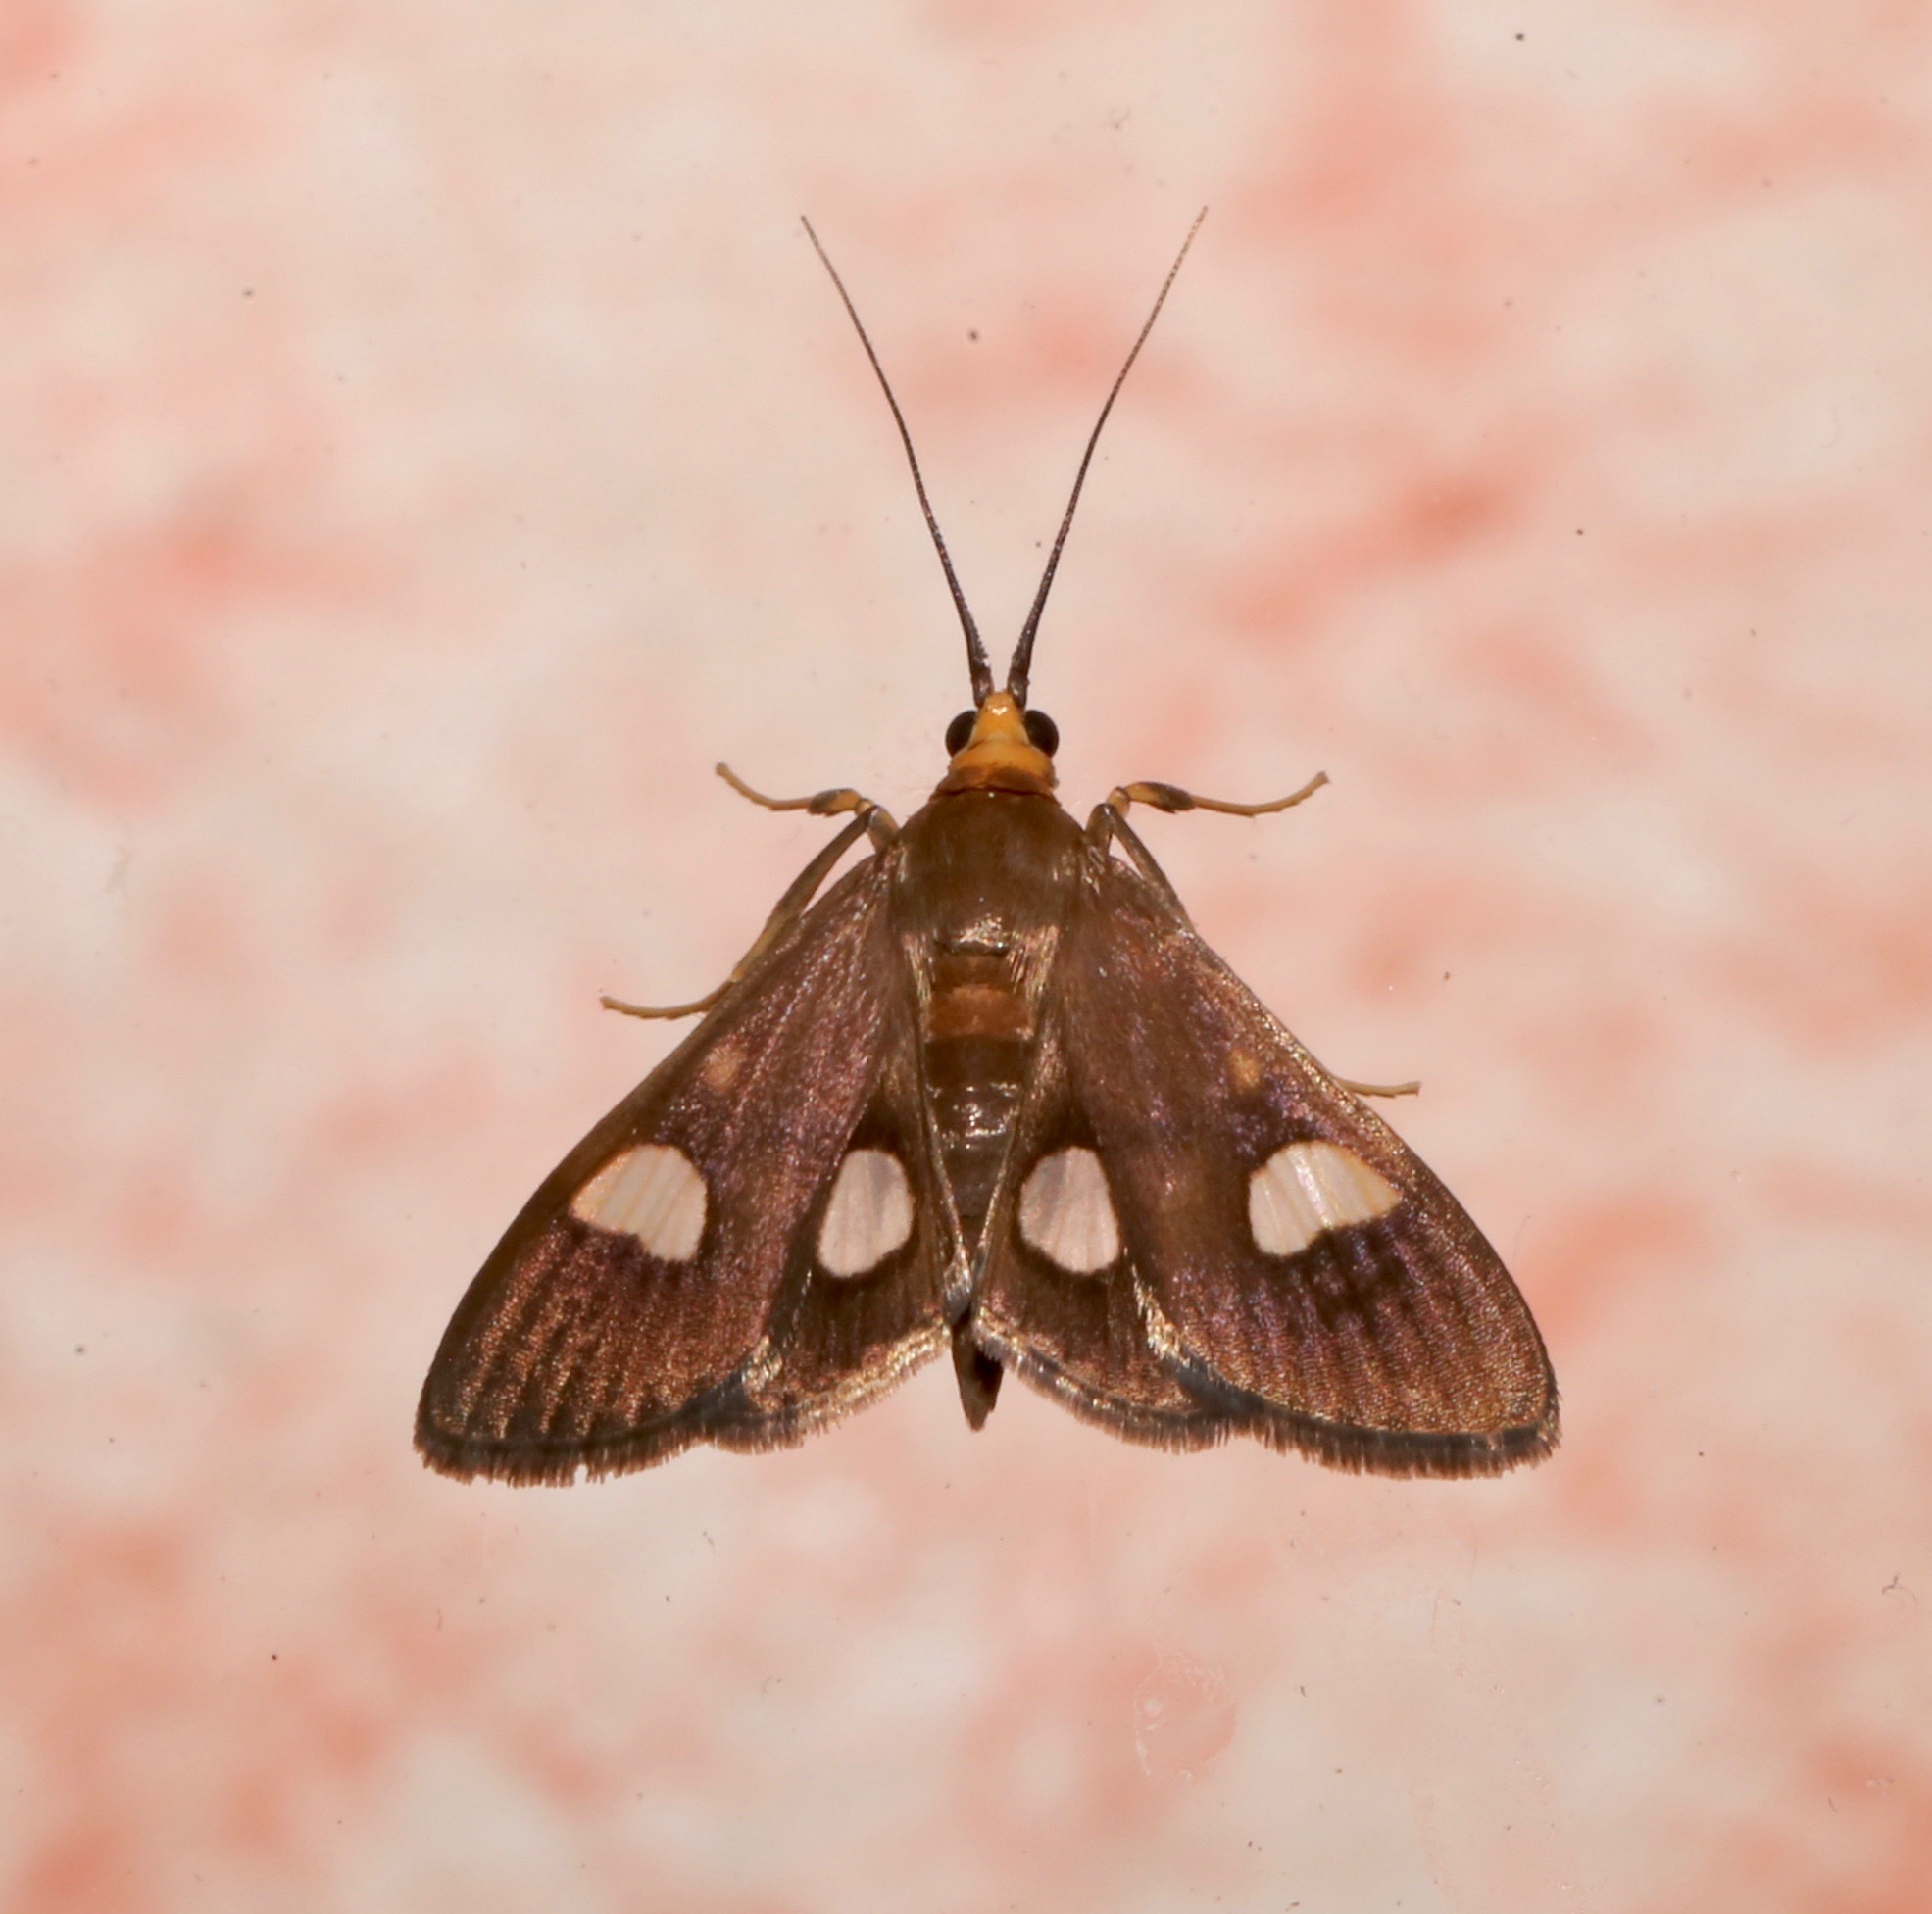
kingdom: Animalia
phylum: Arthropoda
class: Insecta
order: Lepidoptera
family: Crambidae
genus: Ulopeza
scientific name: Ulopeza flavicepsalis
